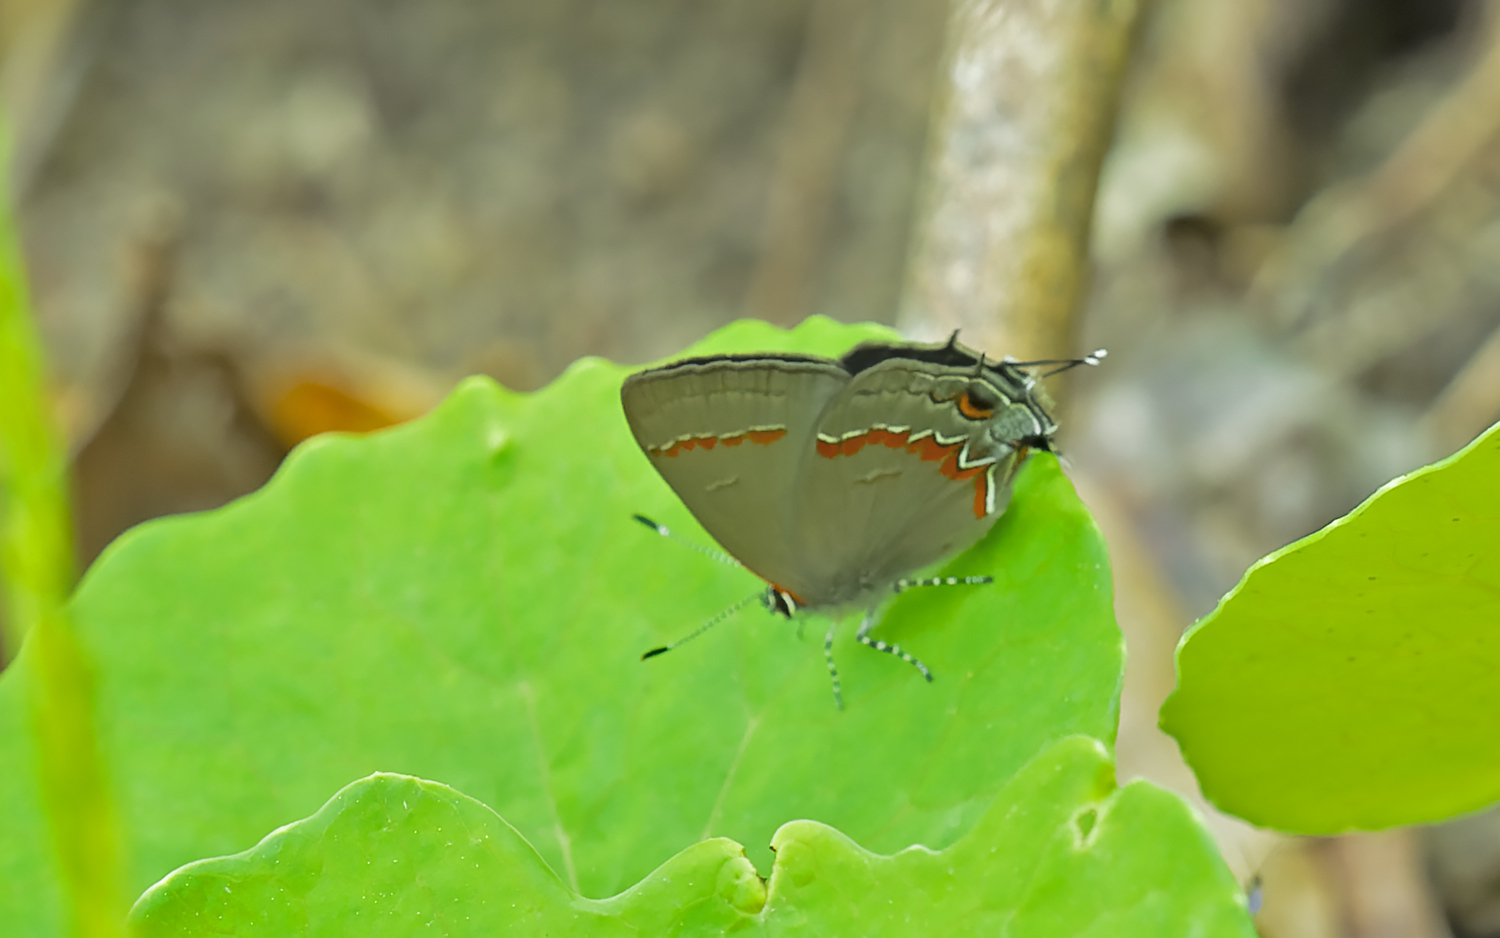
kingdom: Animalia
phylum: Arthropoda
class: Insecta
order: Lepidoptera
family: Lycaenidae
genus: Calycopis
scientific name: Calycopis cecrops
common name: Red-banded hairstreak
